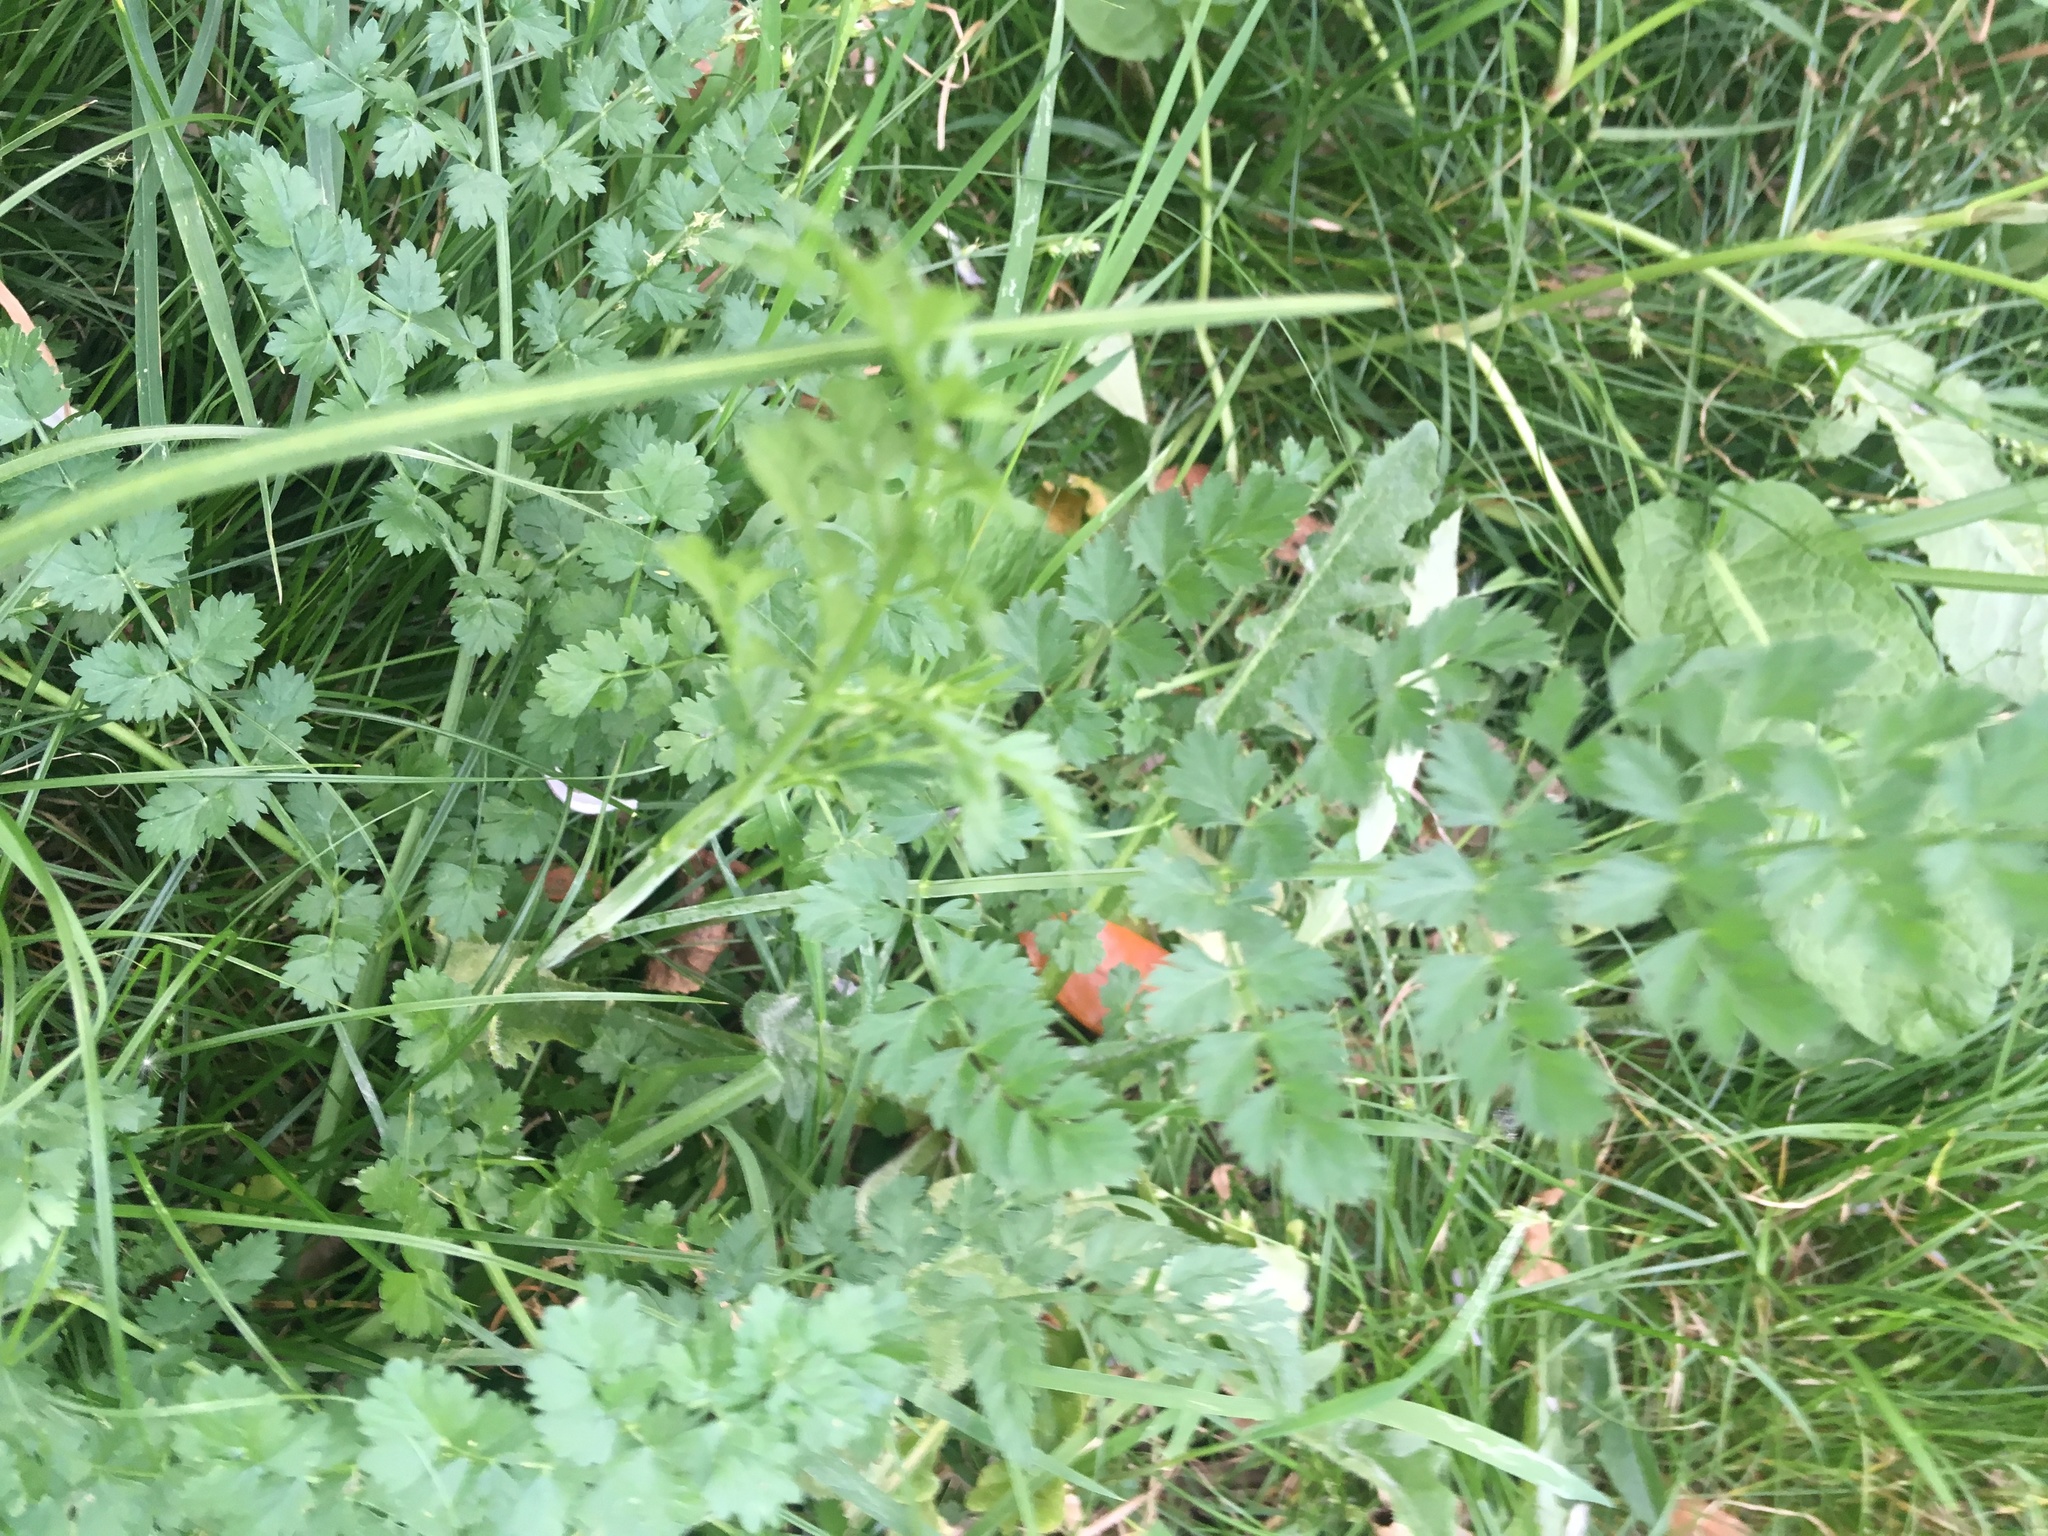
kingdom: Plantae
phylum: Tracheophyta
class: Magnoliopsida
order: Apiales
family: Apiaceae
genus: Oenanthe
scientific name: Oenanthe pimpinelloides
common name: Corky-fruited water-dropwort
